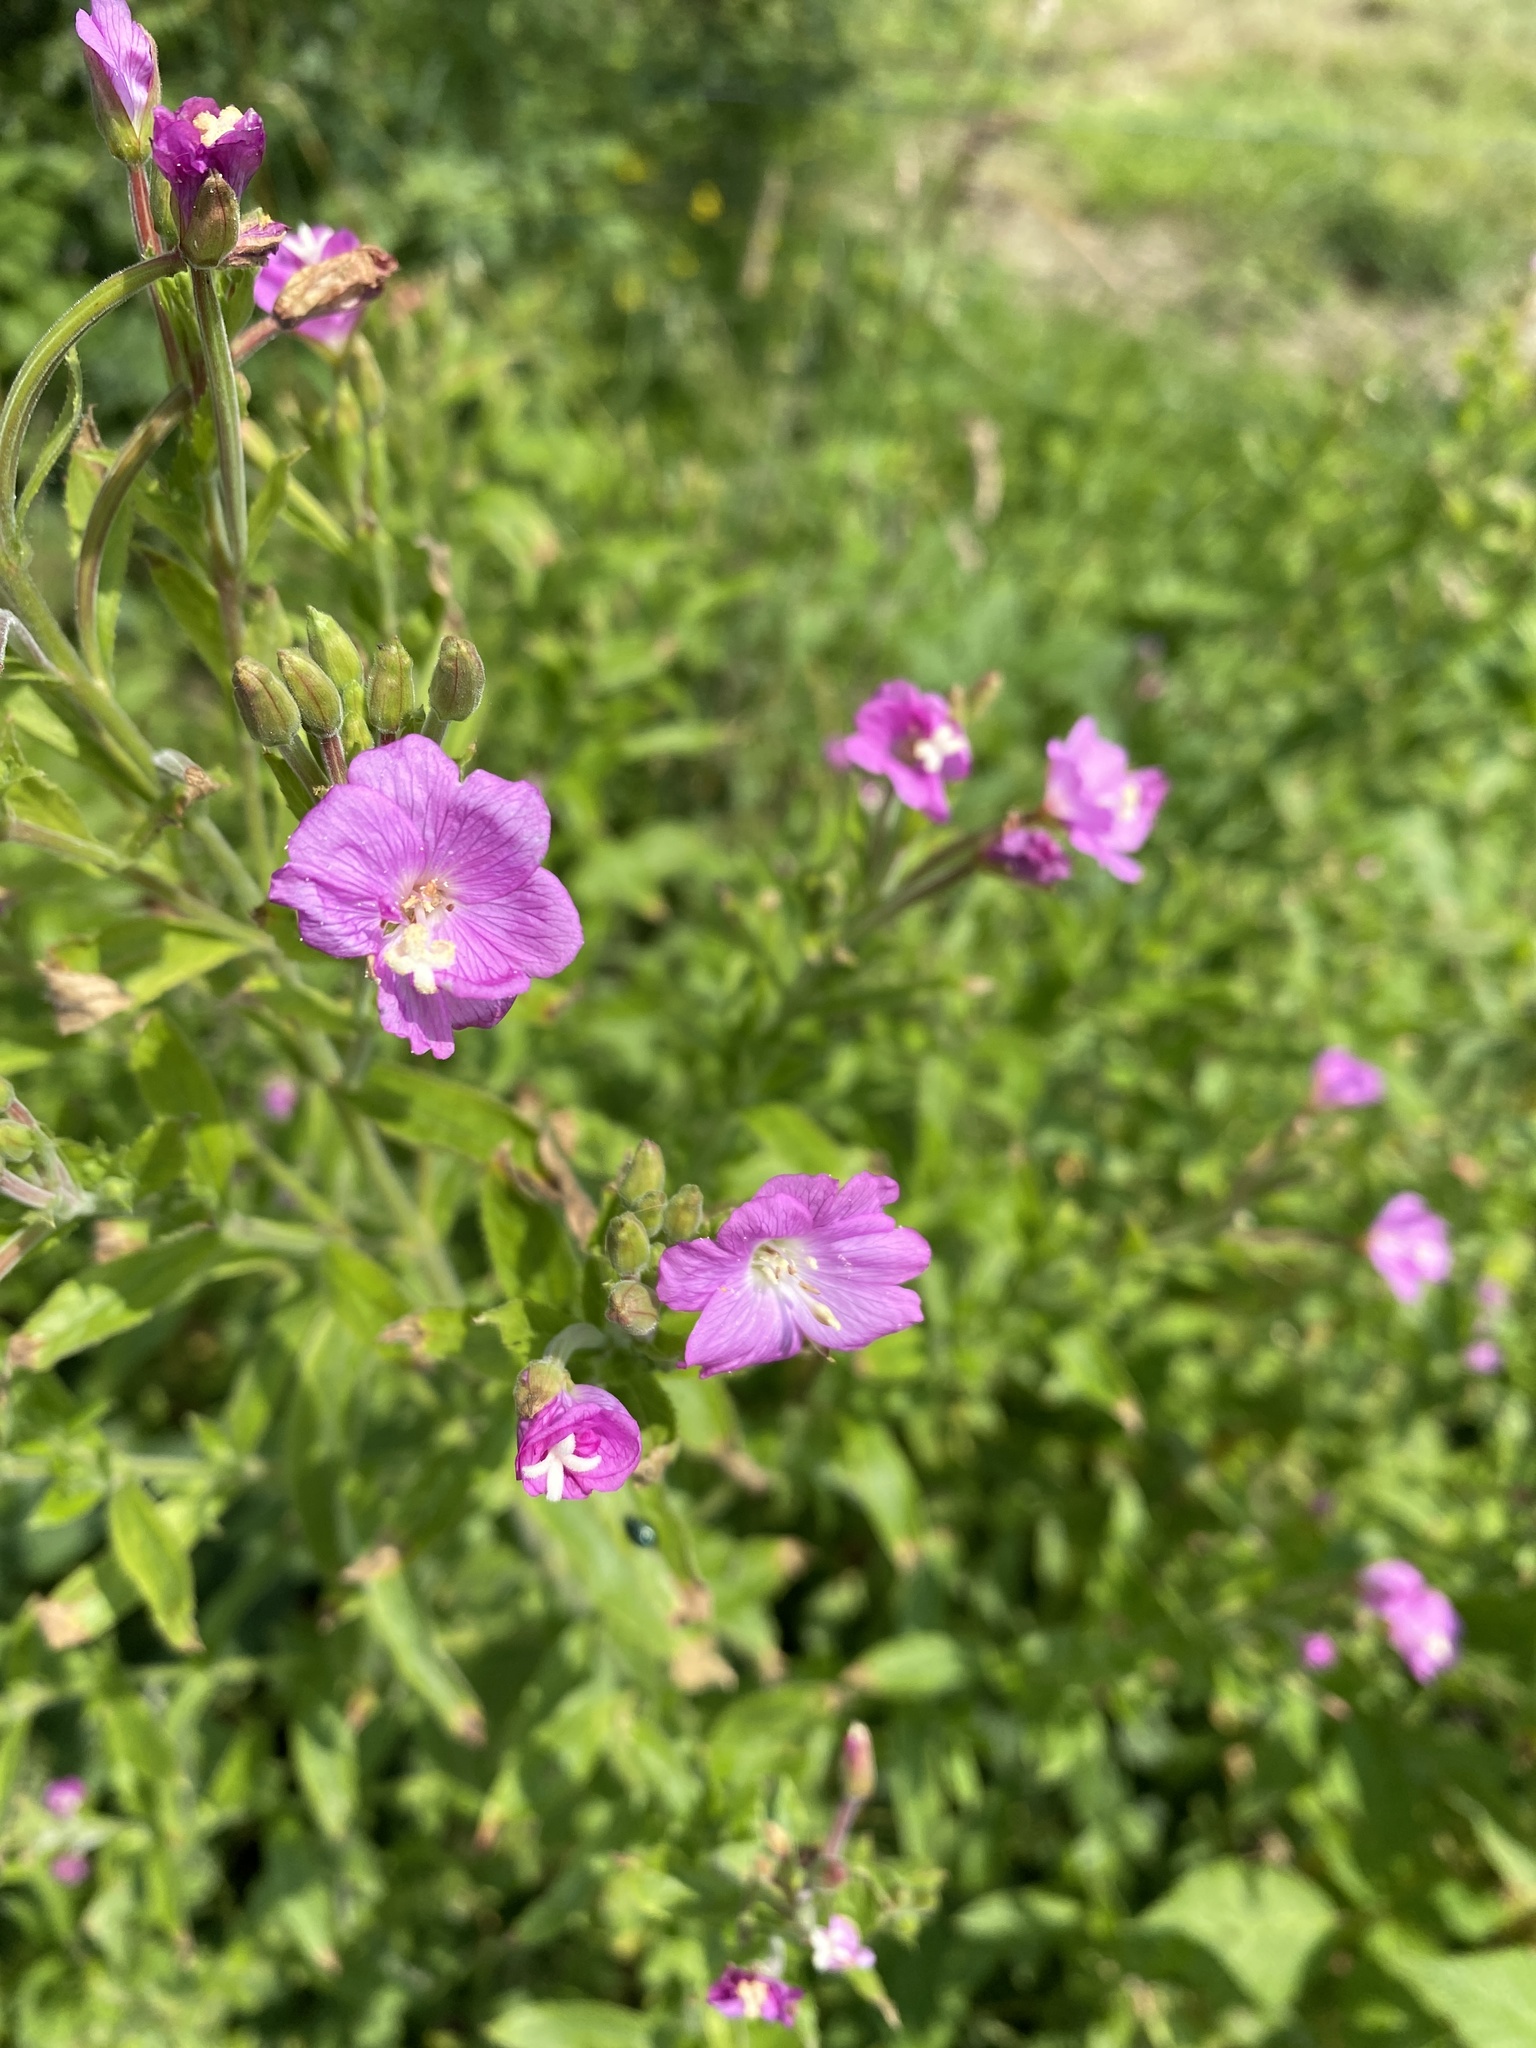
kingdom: Plantae
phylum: Tracheophyta
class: Magnoliopsida
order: Myrtales
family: Onagraceae
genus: Epilobium
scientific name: Epilobium hirsutum
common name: Great willowherb
